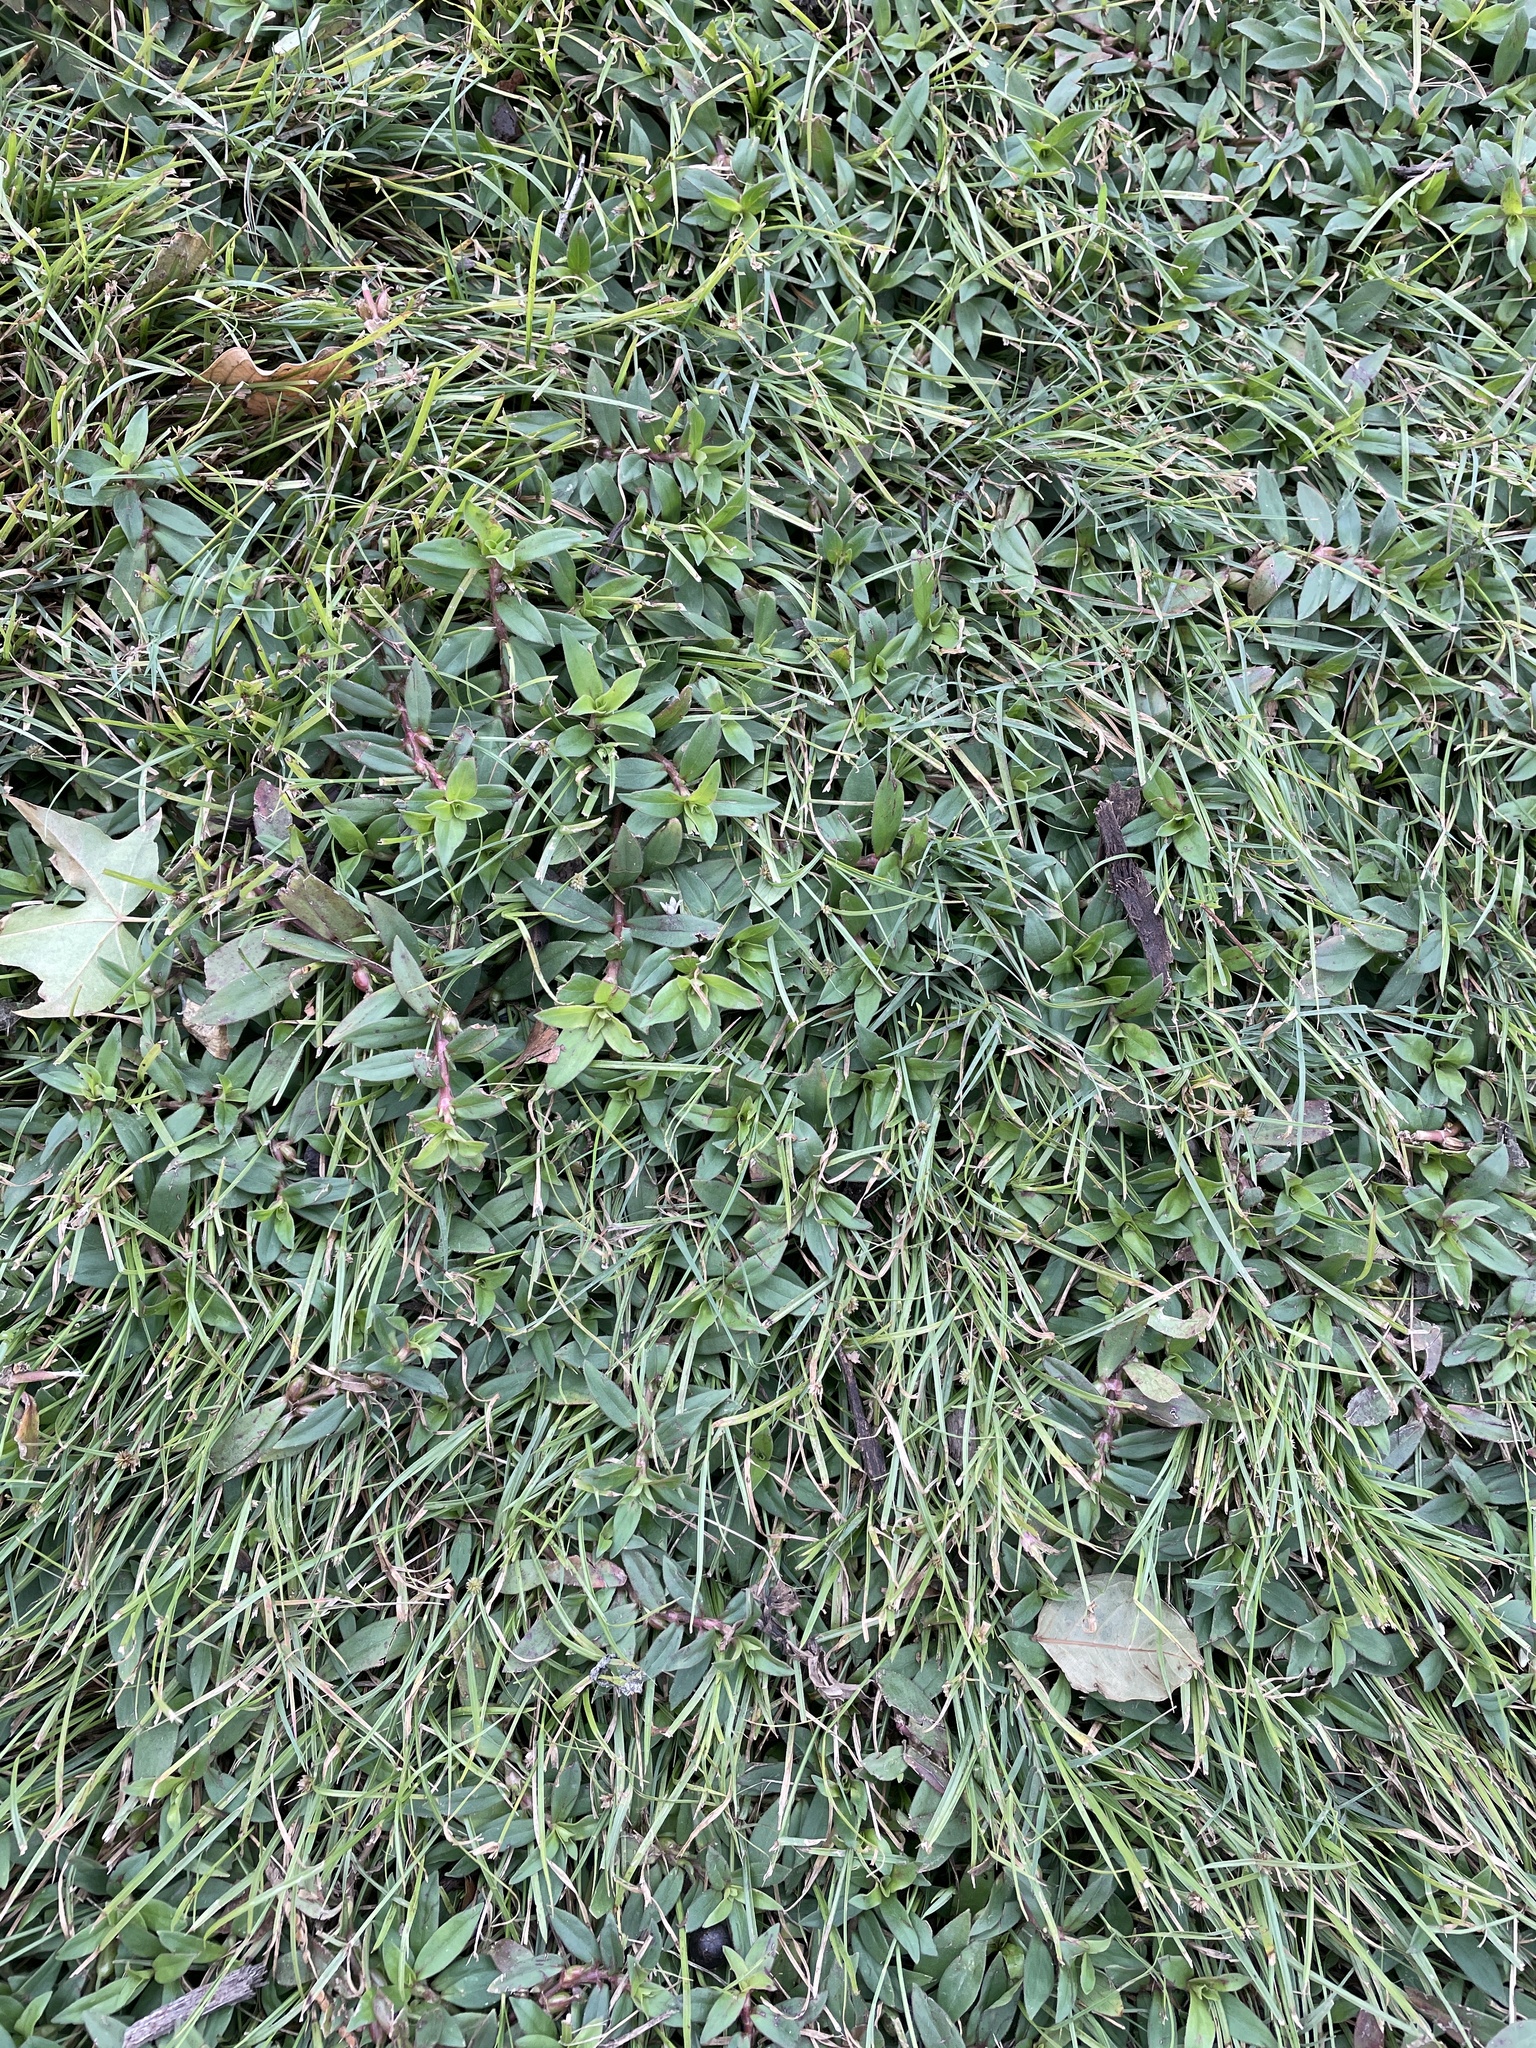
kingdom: Plantae
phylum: Tracheophyta
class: Magnoliopsida
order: Gentianales
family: Rubiaceae
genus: Diodia
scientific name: Diodia virginiana
